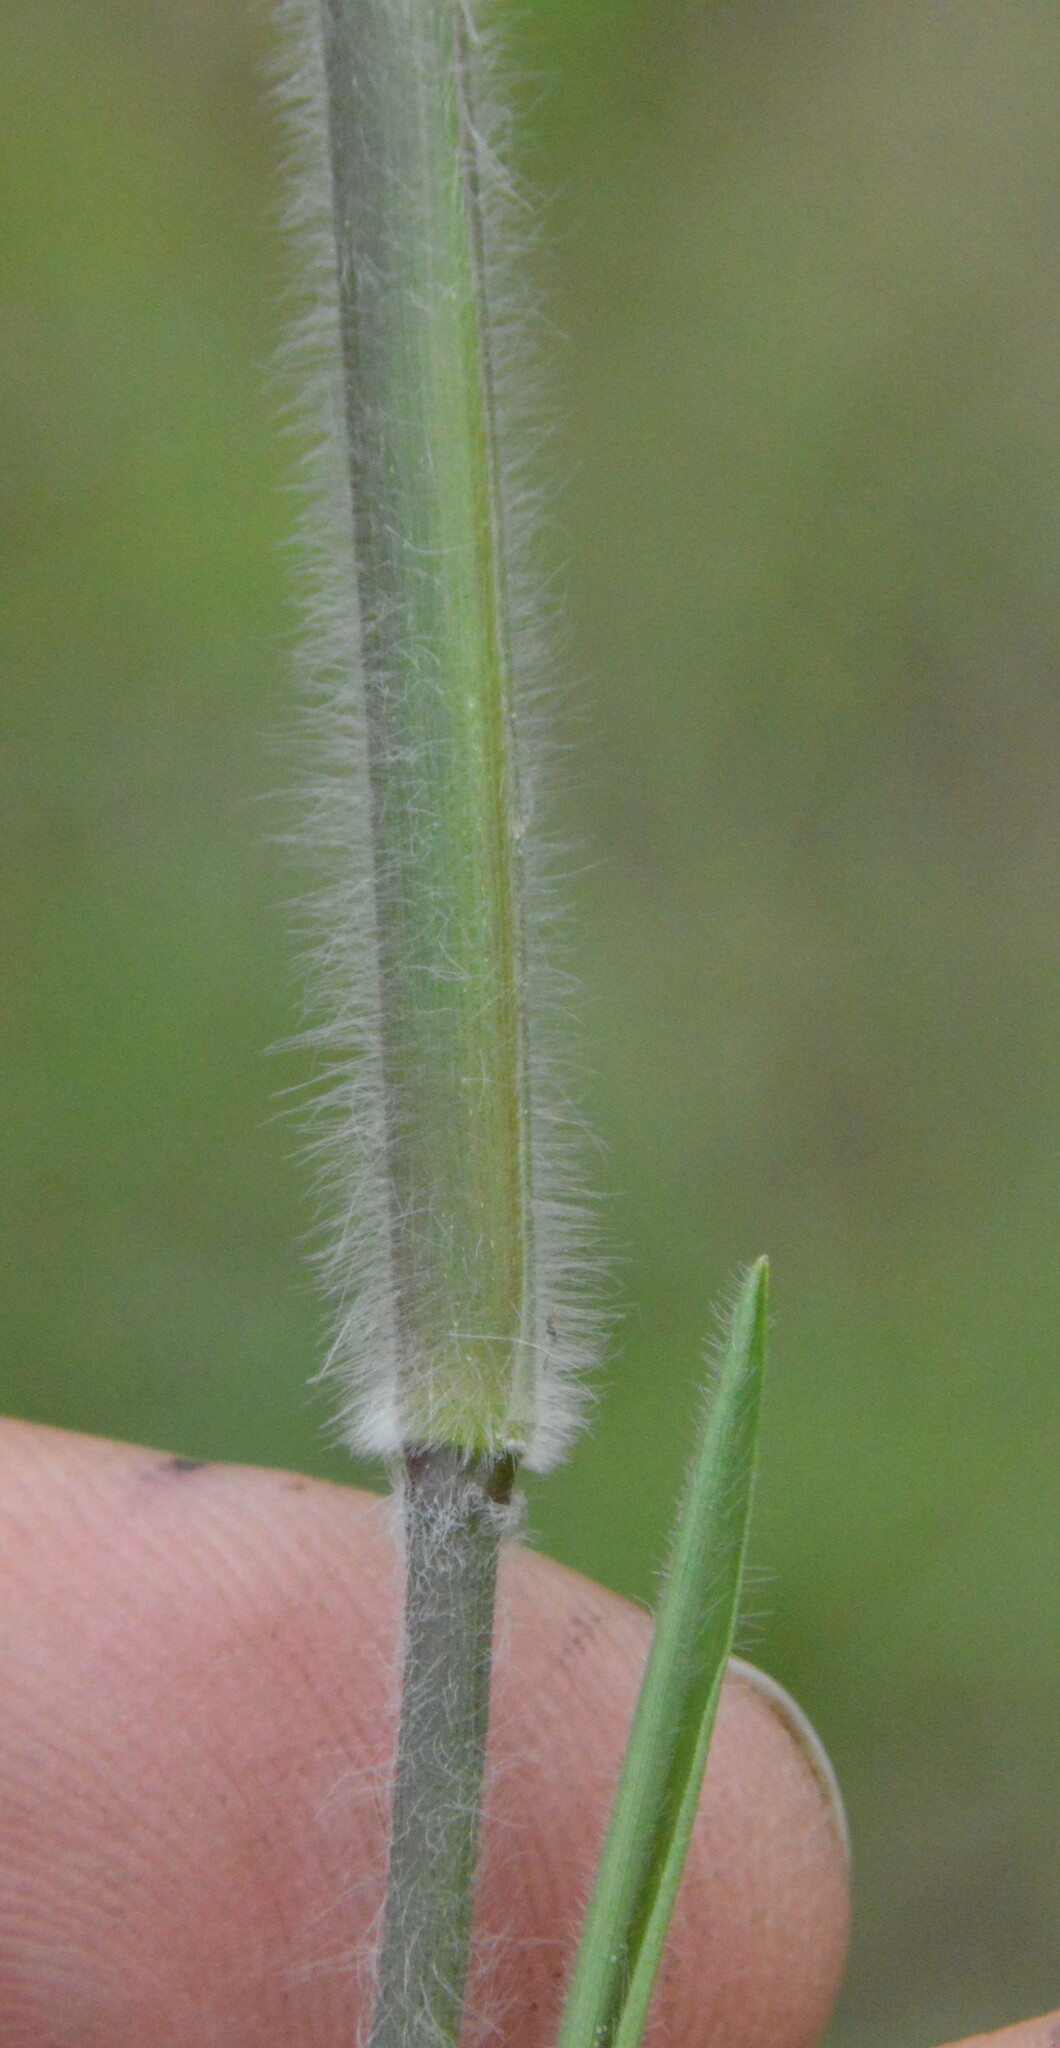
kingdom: Plantae
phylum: Tracheophyta
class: Liliopsida
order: Poales
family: Poaceae
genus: Dichanthelium
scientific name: Dichanthelium acuminatum
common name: Hairy panic grass
